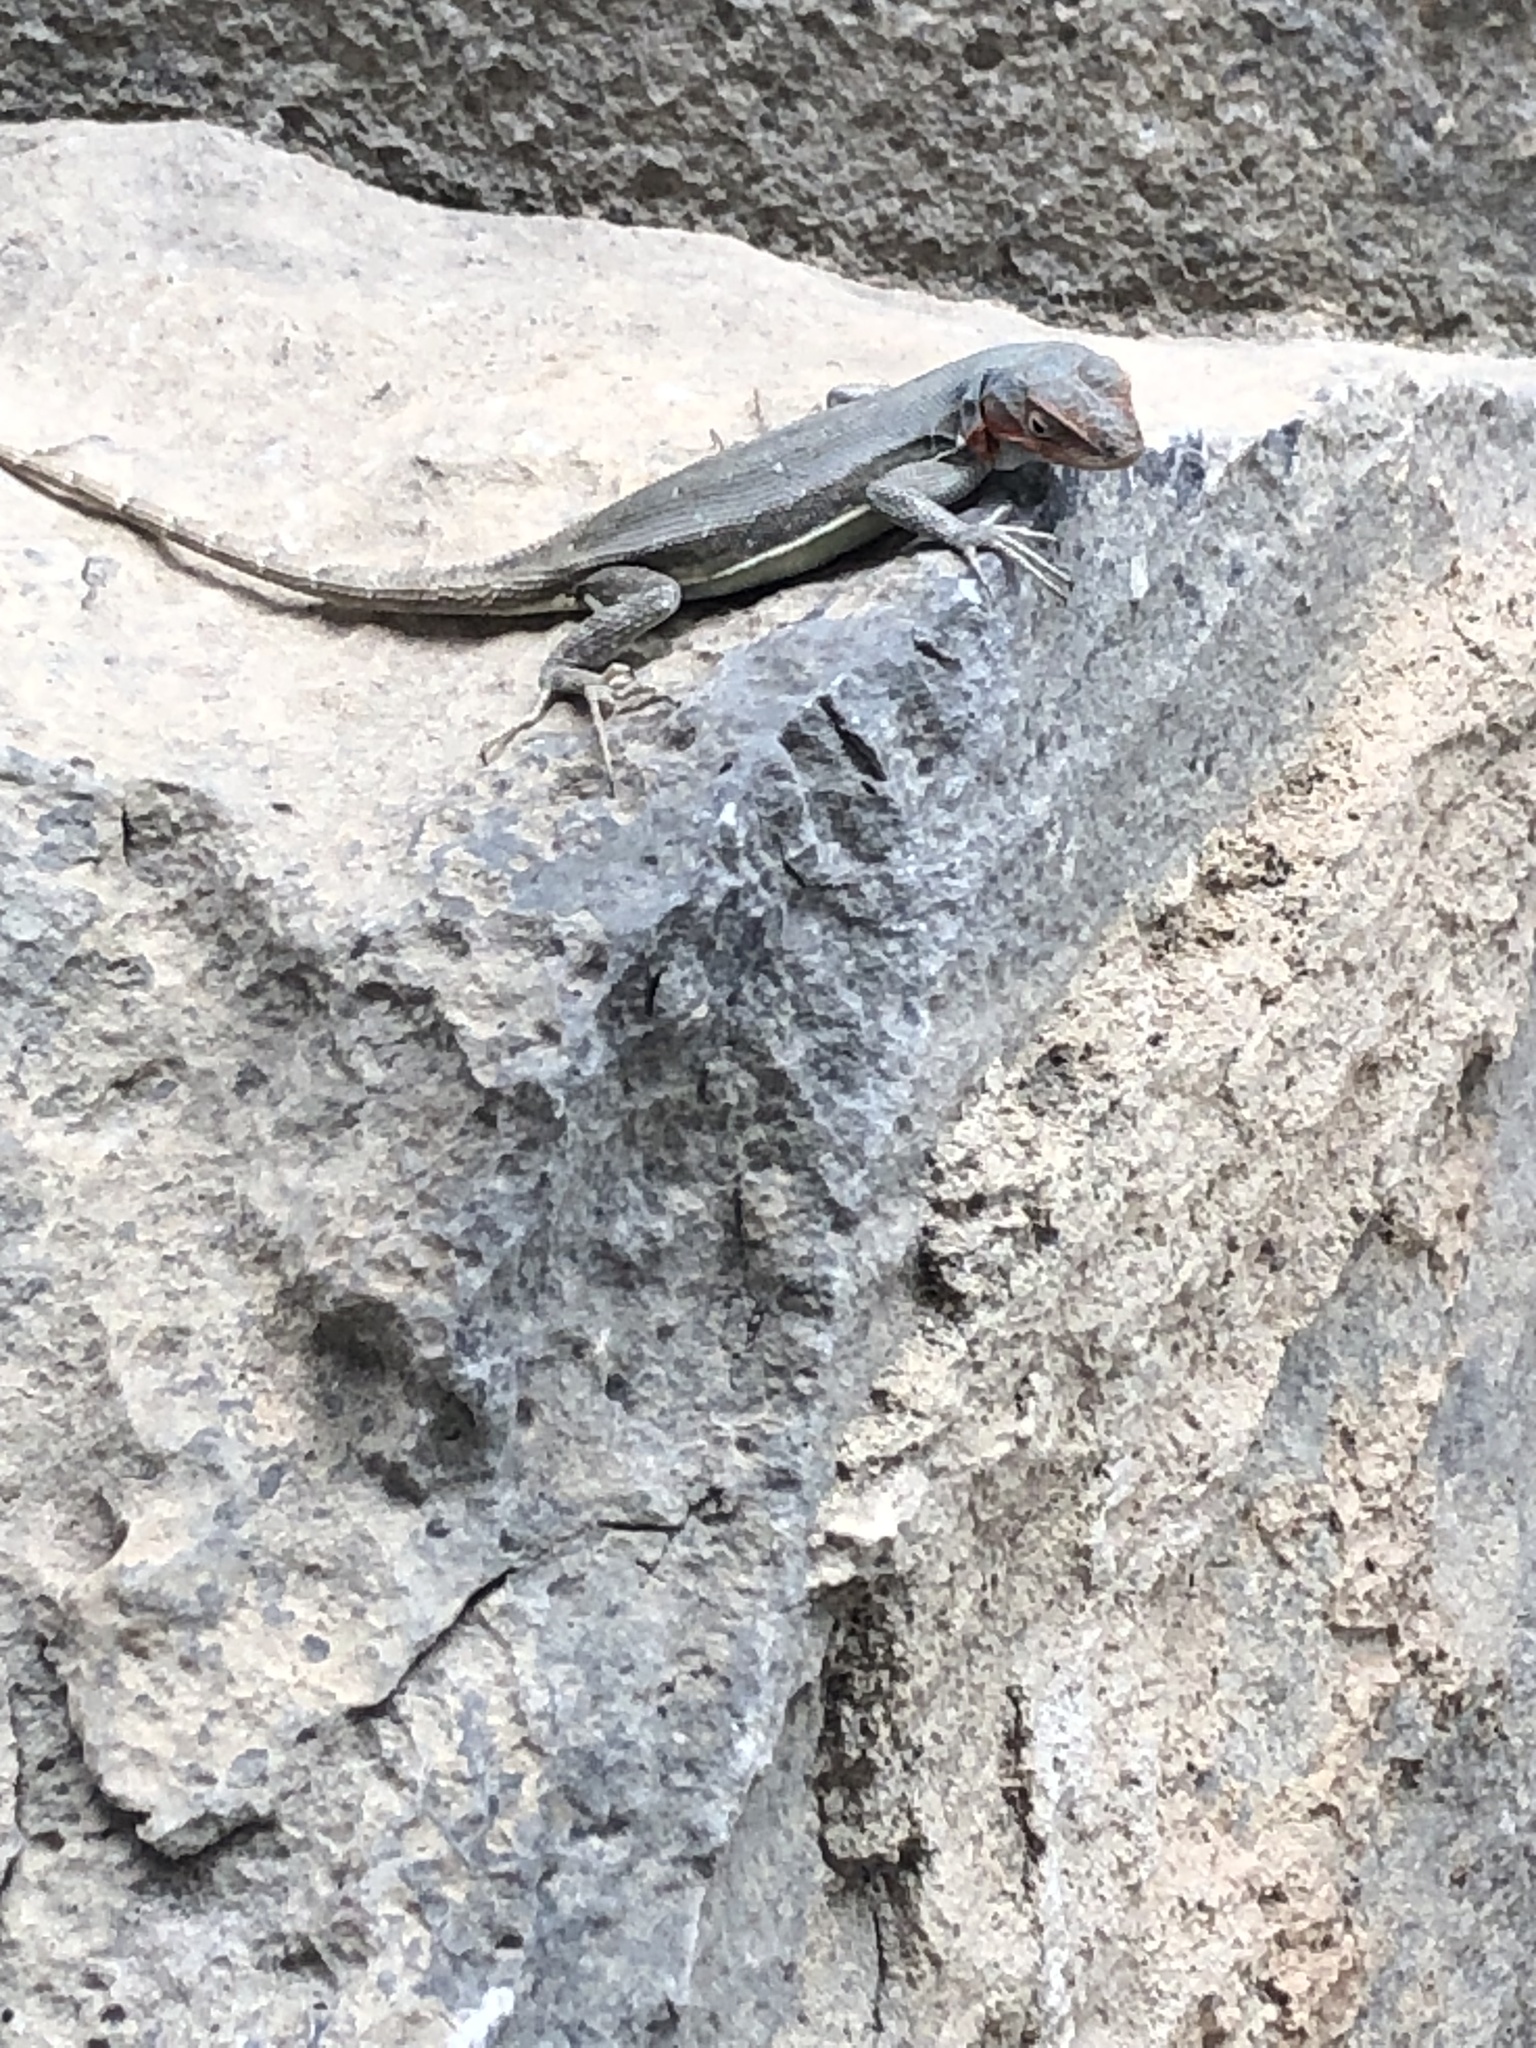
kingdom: Animalia
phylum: Chordata
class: Squamata
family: Phrynosomatidae
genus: Sceloporus
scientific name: Sceloporus couchii
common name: Couch's spiny lizard
